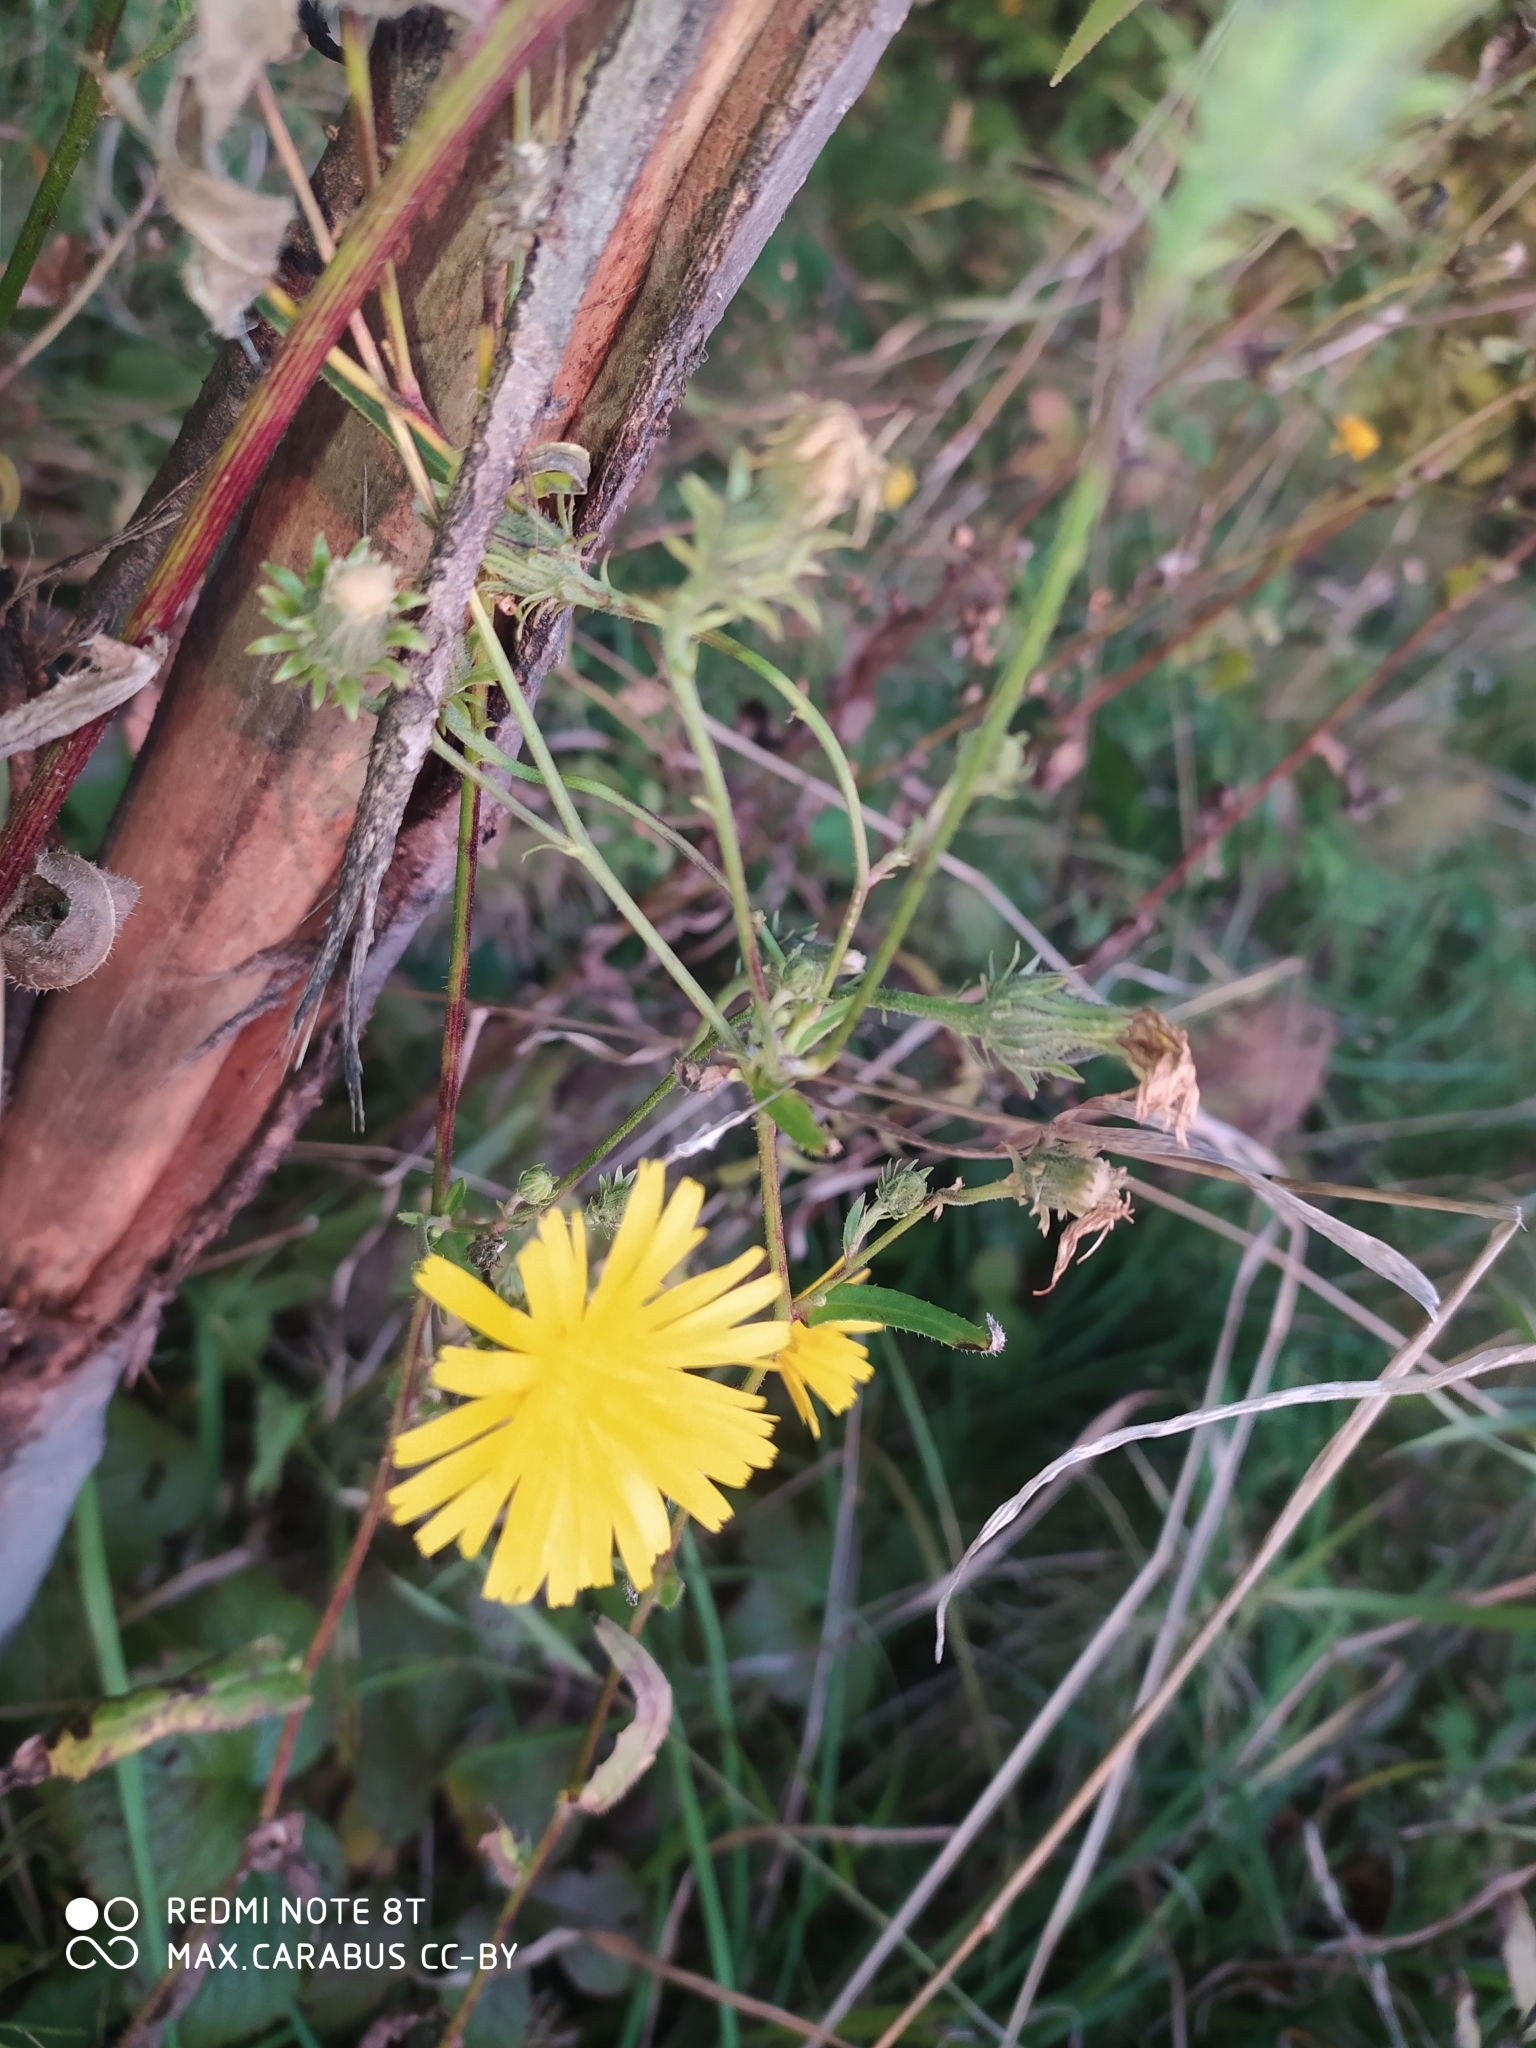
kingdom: Plantae
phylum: Tracheophyta
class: Magnoliopsida
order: Asterales
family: Asteraceae
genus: Picris
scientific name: Picris hieracioides
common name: Hawkweed oxtongue
